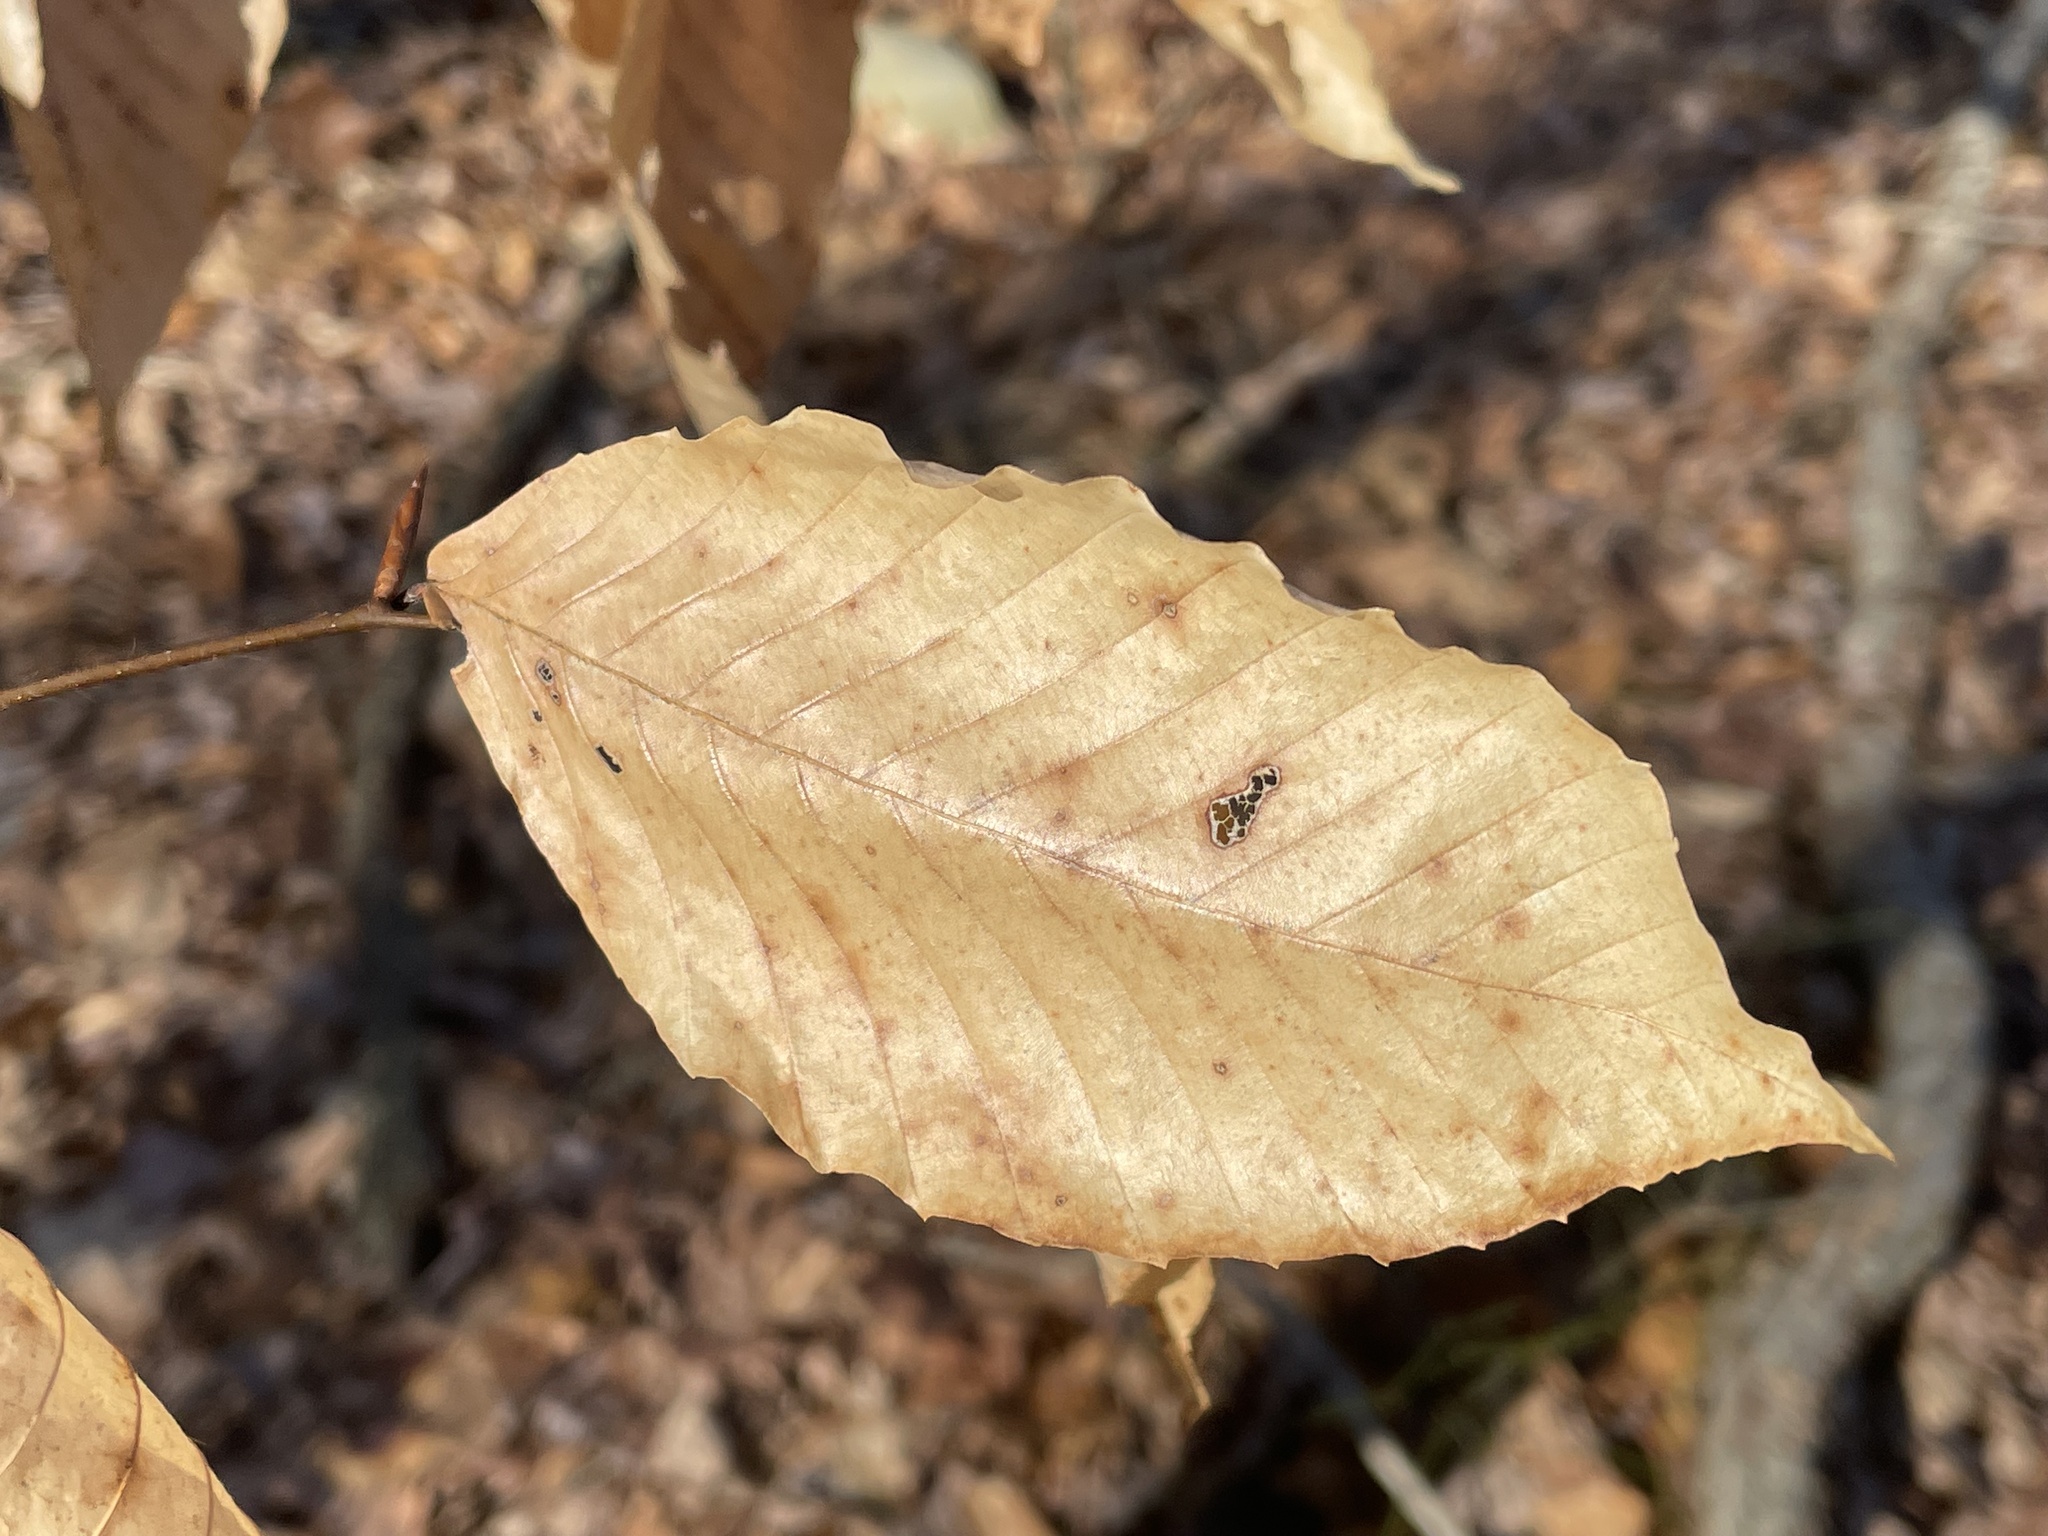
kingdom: Plantae
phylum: Tracheophyta
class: Magnoliopsida
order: Fagales
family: Fagaceae
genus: Fagus
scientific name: Fagus grandifolia
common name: American beech
